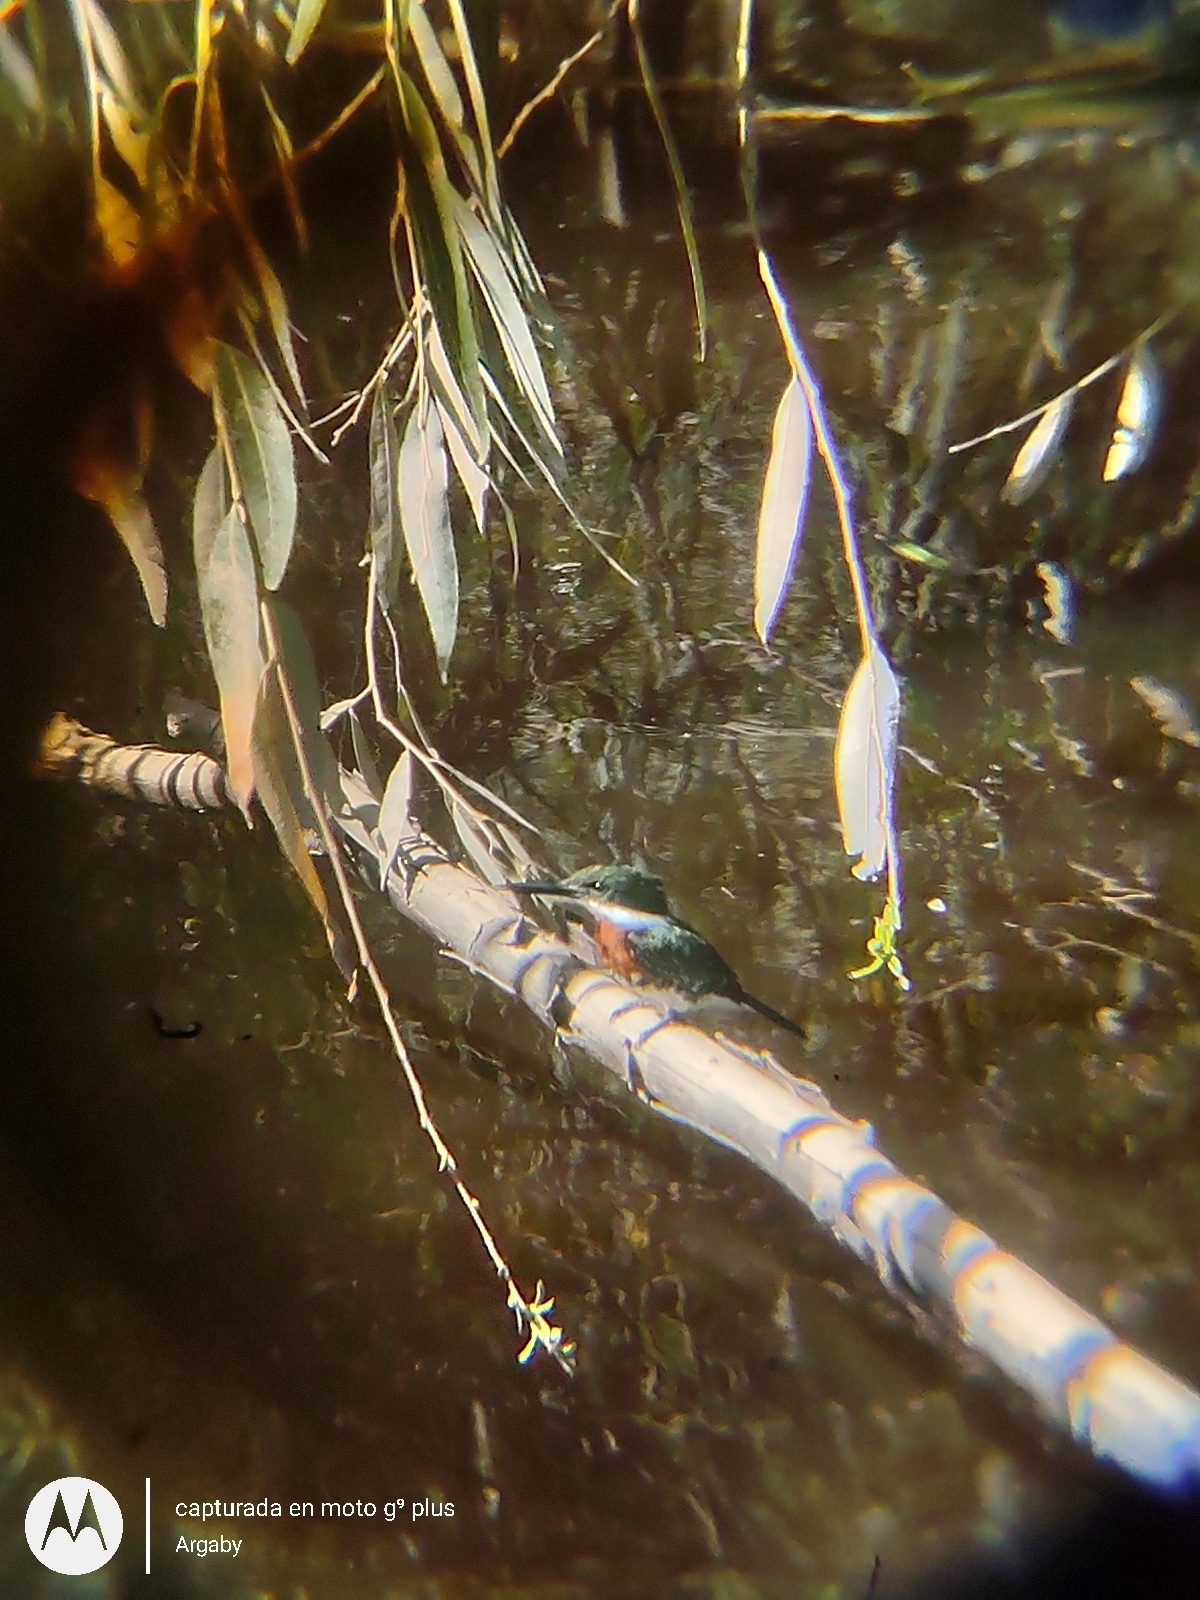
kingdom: Animalia
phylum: Chordata
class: Aves
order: Coraciiformes
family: Alcedinidae
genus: Chloroceryle
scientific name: Chloroceryle americana
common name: Green kingfisher
